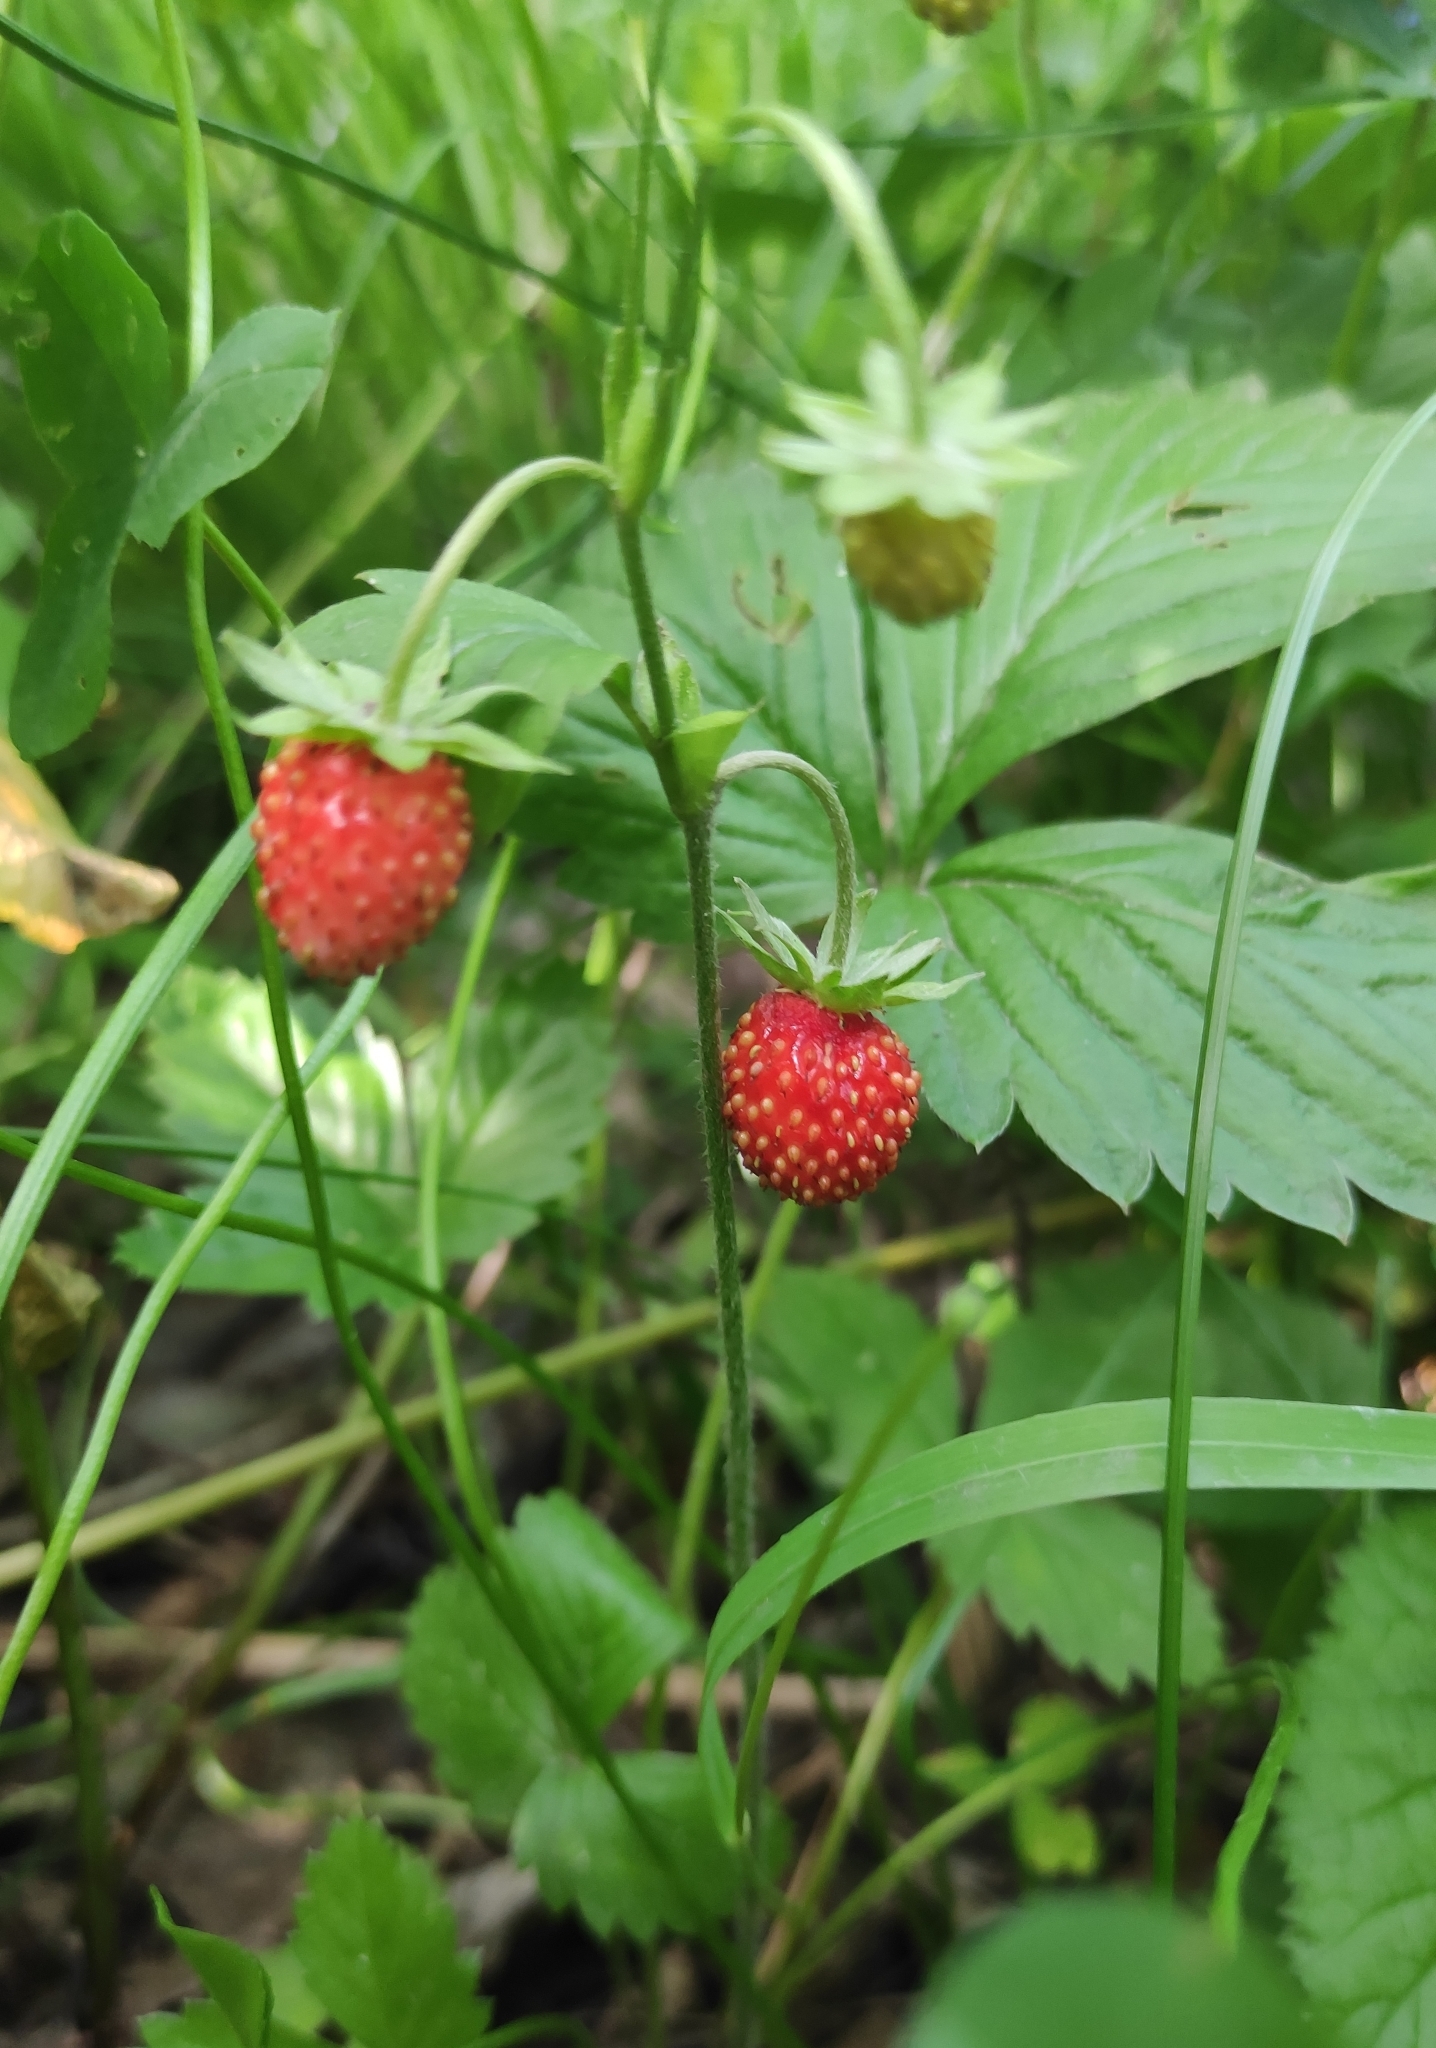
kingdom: Plantae
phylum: Tracheophyta
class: Magnoliopsida
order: Rosales
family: Rosaceae
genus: Fragaria
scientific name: Fragaria vesca
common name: Wild strawberry
